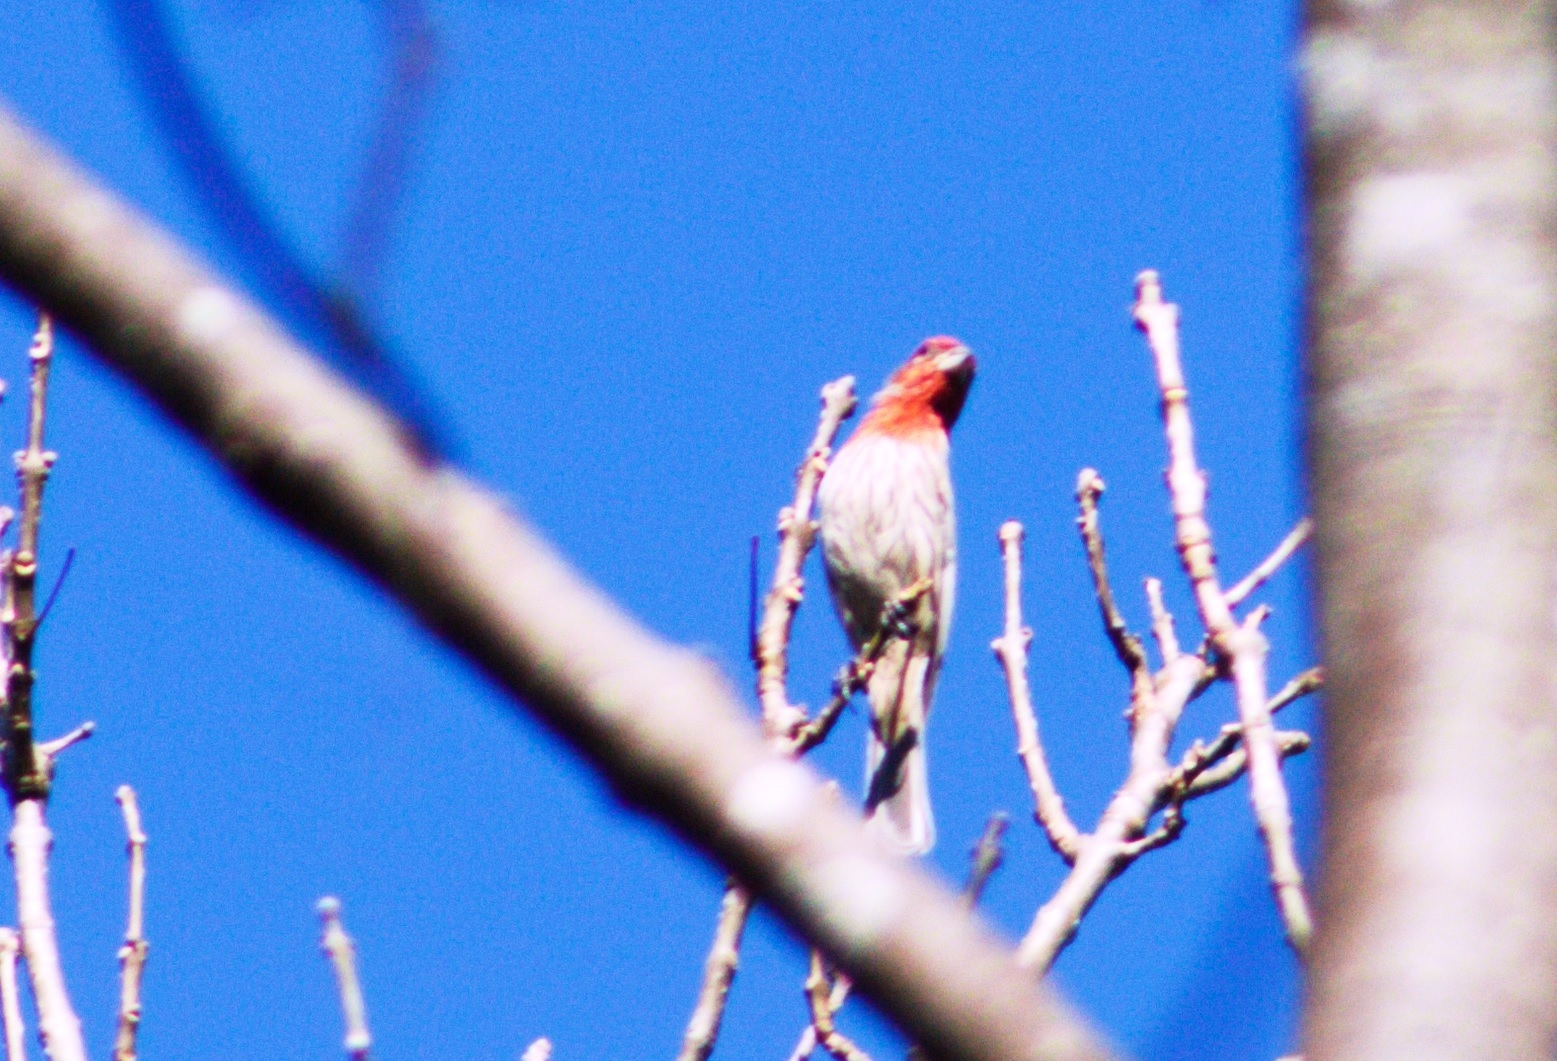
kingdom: Animalia
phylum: Chordata
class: Aves
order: Passeriformes
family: Fringillidae
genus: Haemorhous
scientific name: Haemorhous mexicanus
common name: House finch
